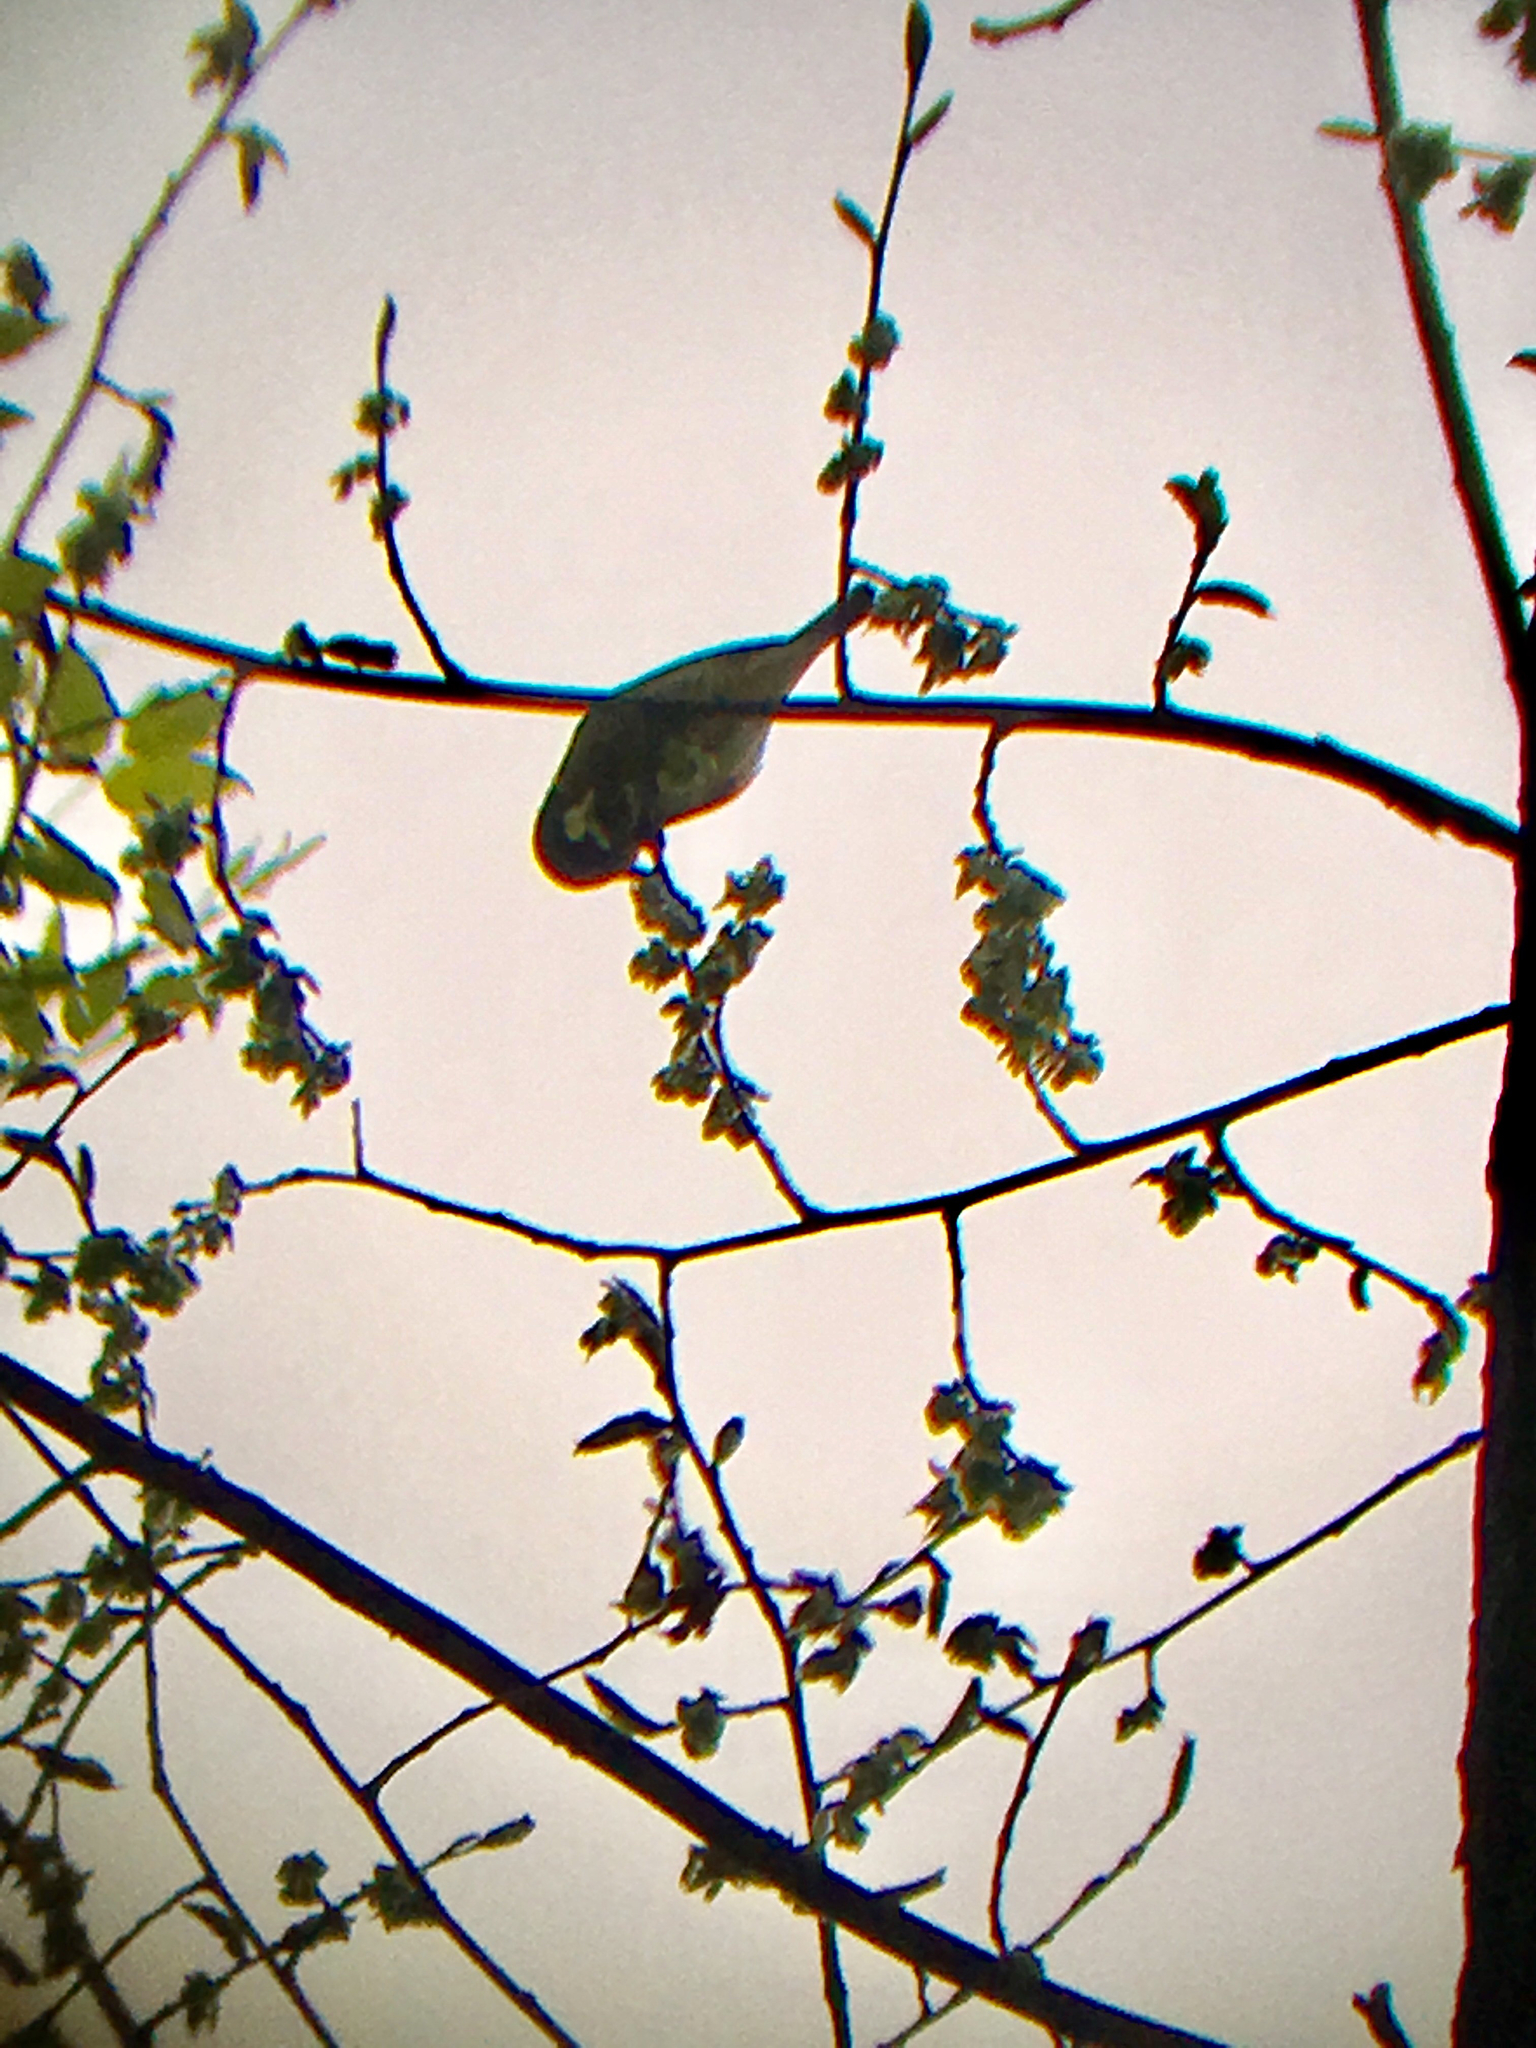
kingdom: Animalia
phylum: Chordata
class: Aves
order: Passeriformes
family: Parulidae
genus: Leiothlypis
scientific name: Leiothlypis celata
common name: Orange-crowned warbler
